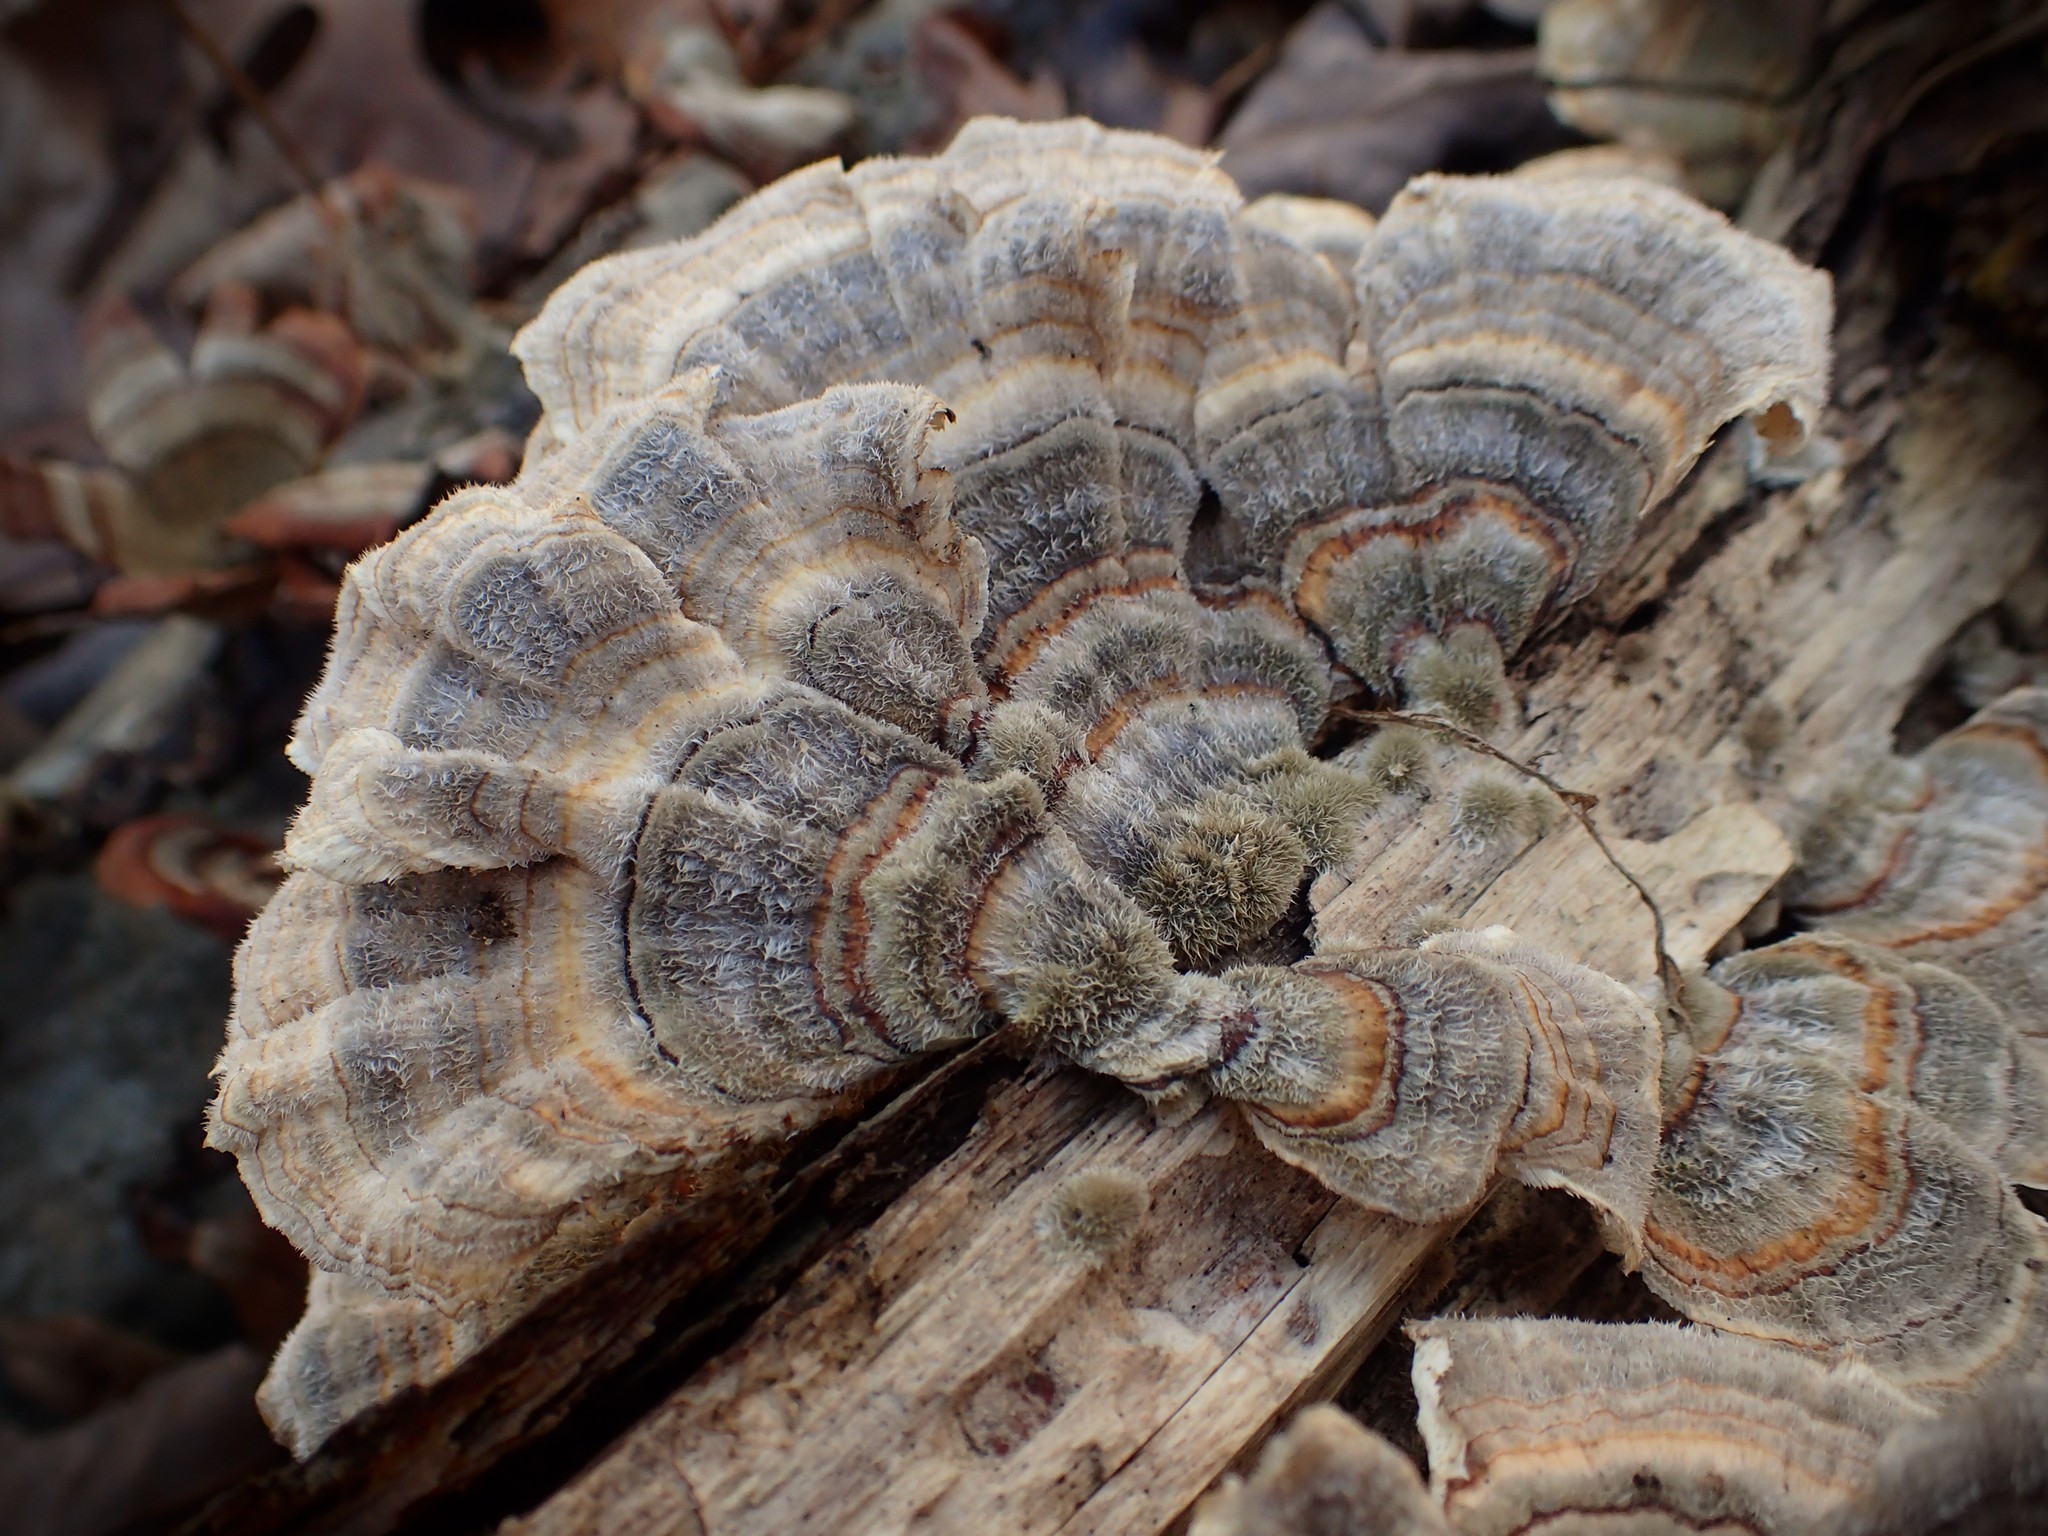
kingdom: Fungi
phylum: Basidiomycota
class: Agaricomycetes
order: Polyporales
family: Polyporaceae
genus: Trametes
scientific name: Trametes versicolor
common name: Turkeytail
